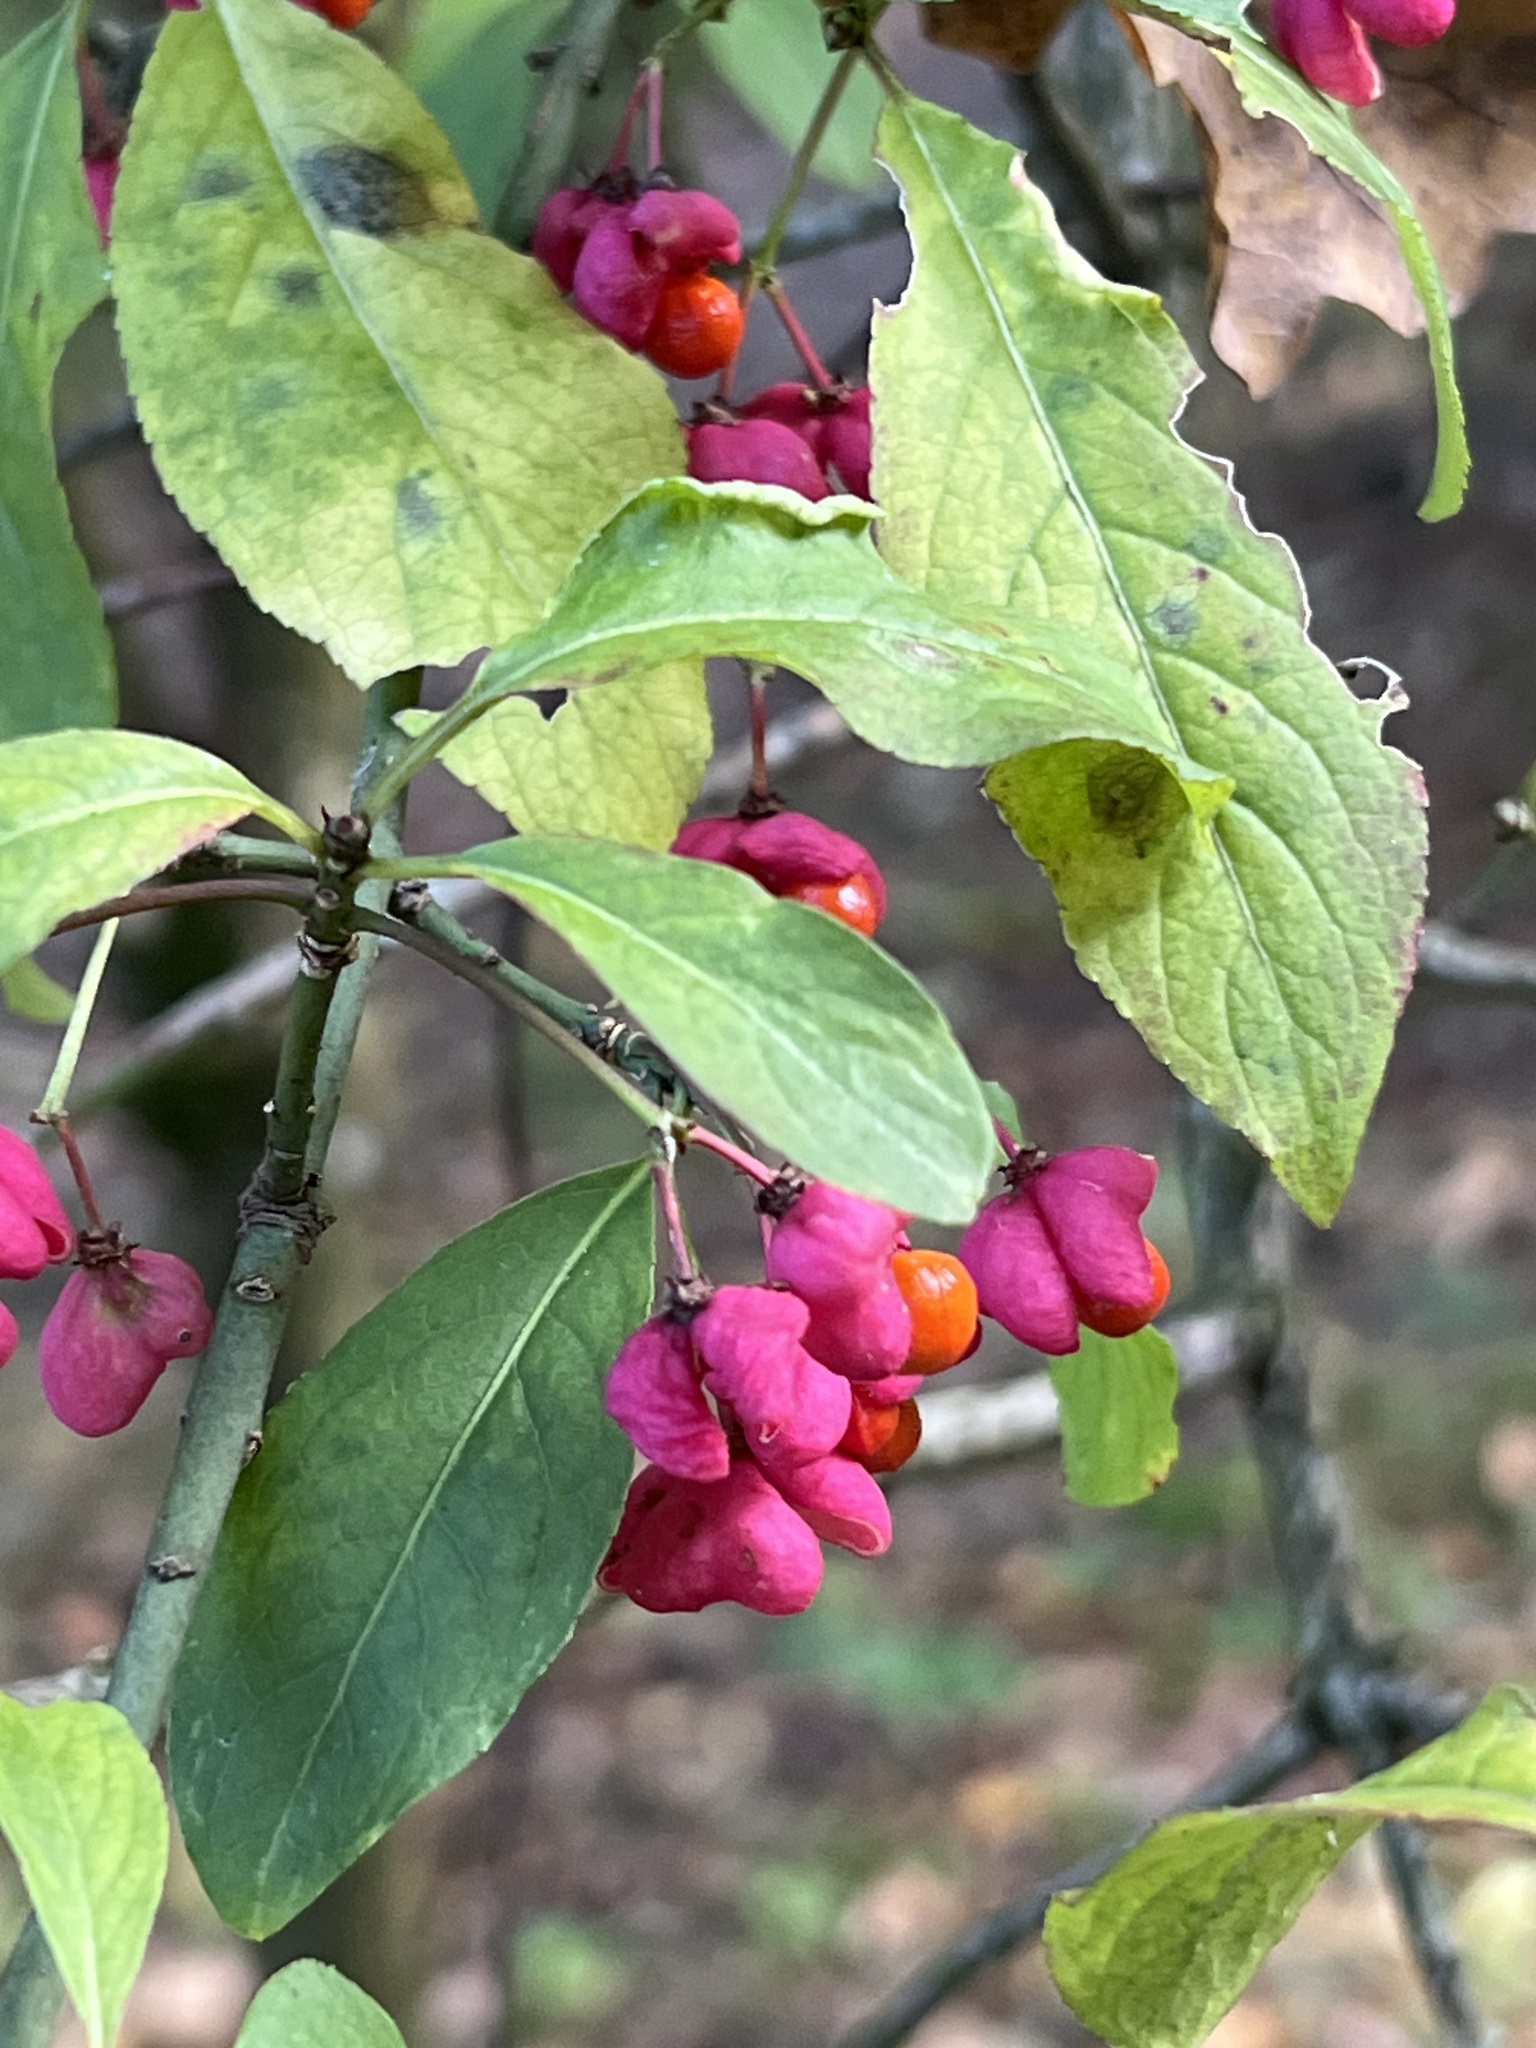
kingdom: Plantae
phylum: Tracheophyta
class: Magnoliopsida
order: Celastrales
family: Celastraceae
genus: Euonymus
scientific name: Euonymus europaeus
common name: Spindle
